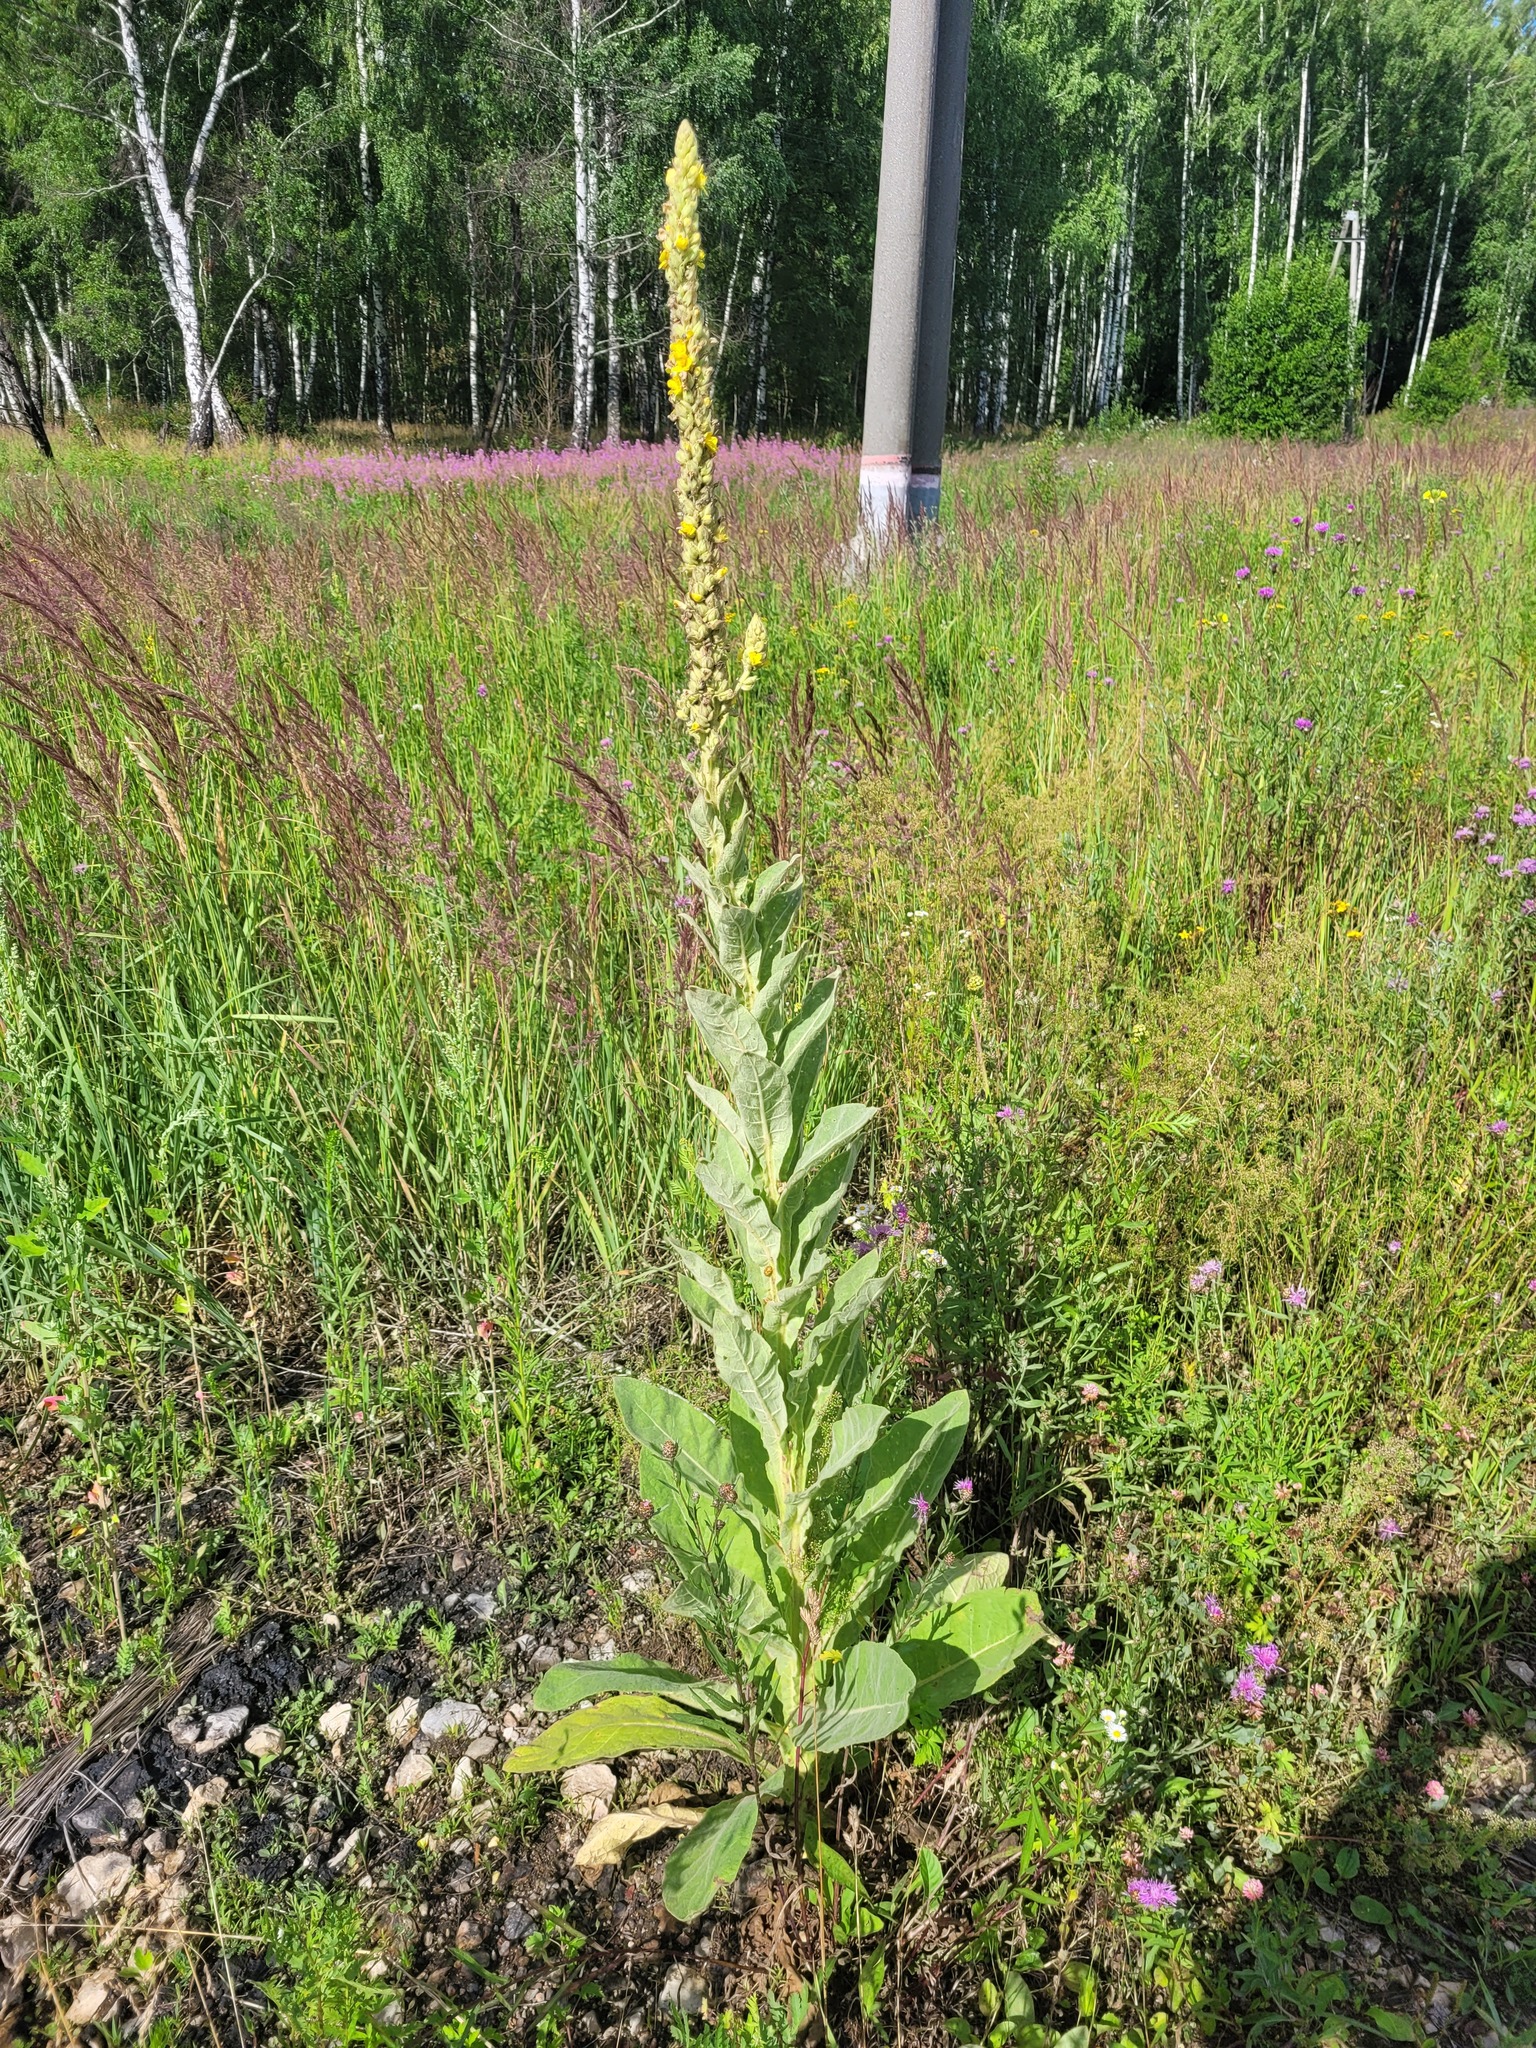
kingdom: Plantae
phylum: Tracheophyta
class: Magnoliopsida
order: Lamiales
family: Scrophulariaceae
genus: Verbascum
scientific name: Verbascum thapsus
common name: Common mullein
